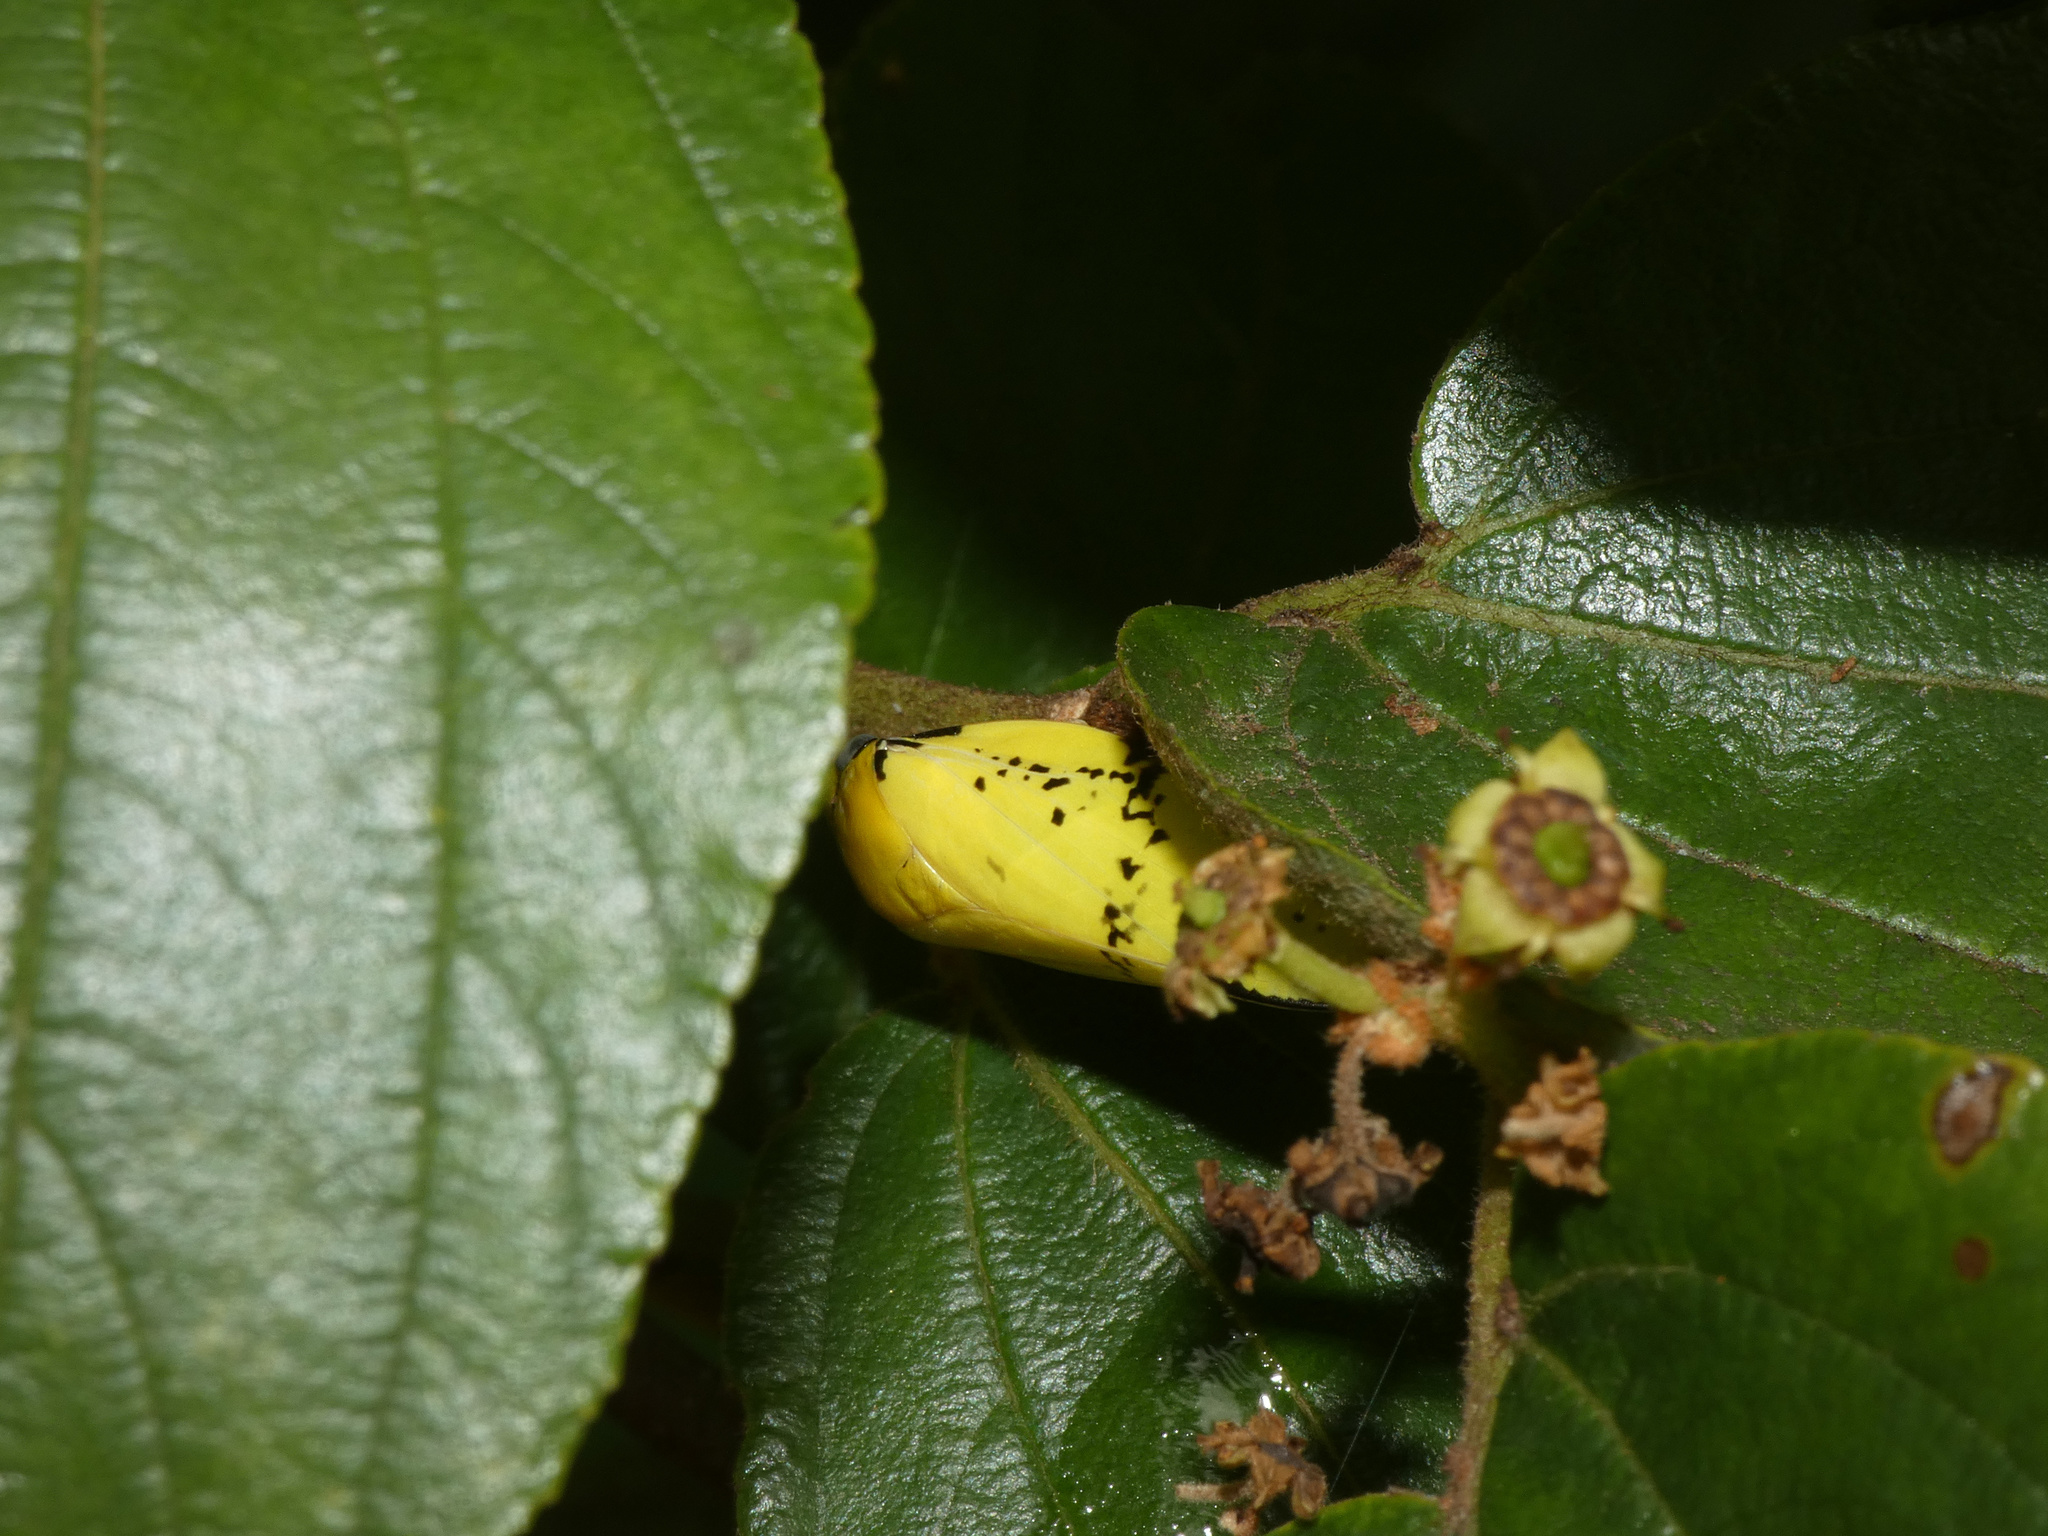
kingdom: Animalia
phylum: Arthropoda
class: Insecta
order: Hemiptera
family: Aphrophoridae
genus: Ptyelus
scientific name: Ptyelus flavescens
